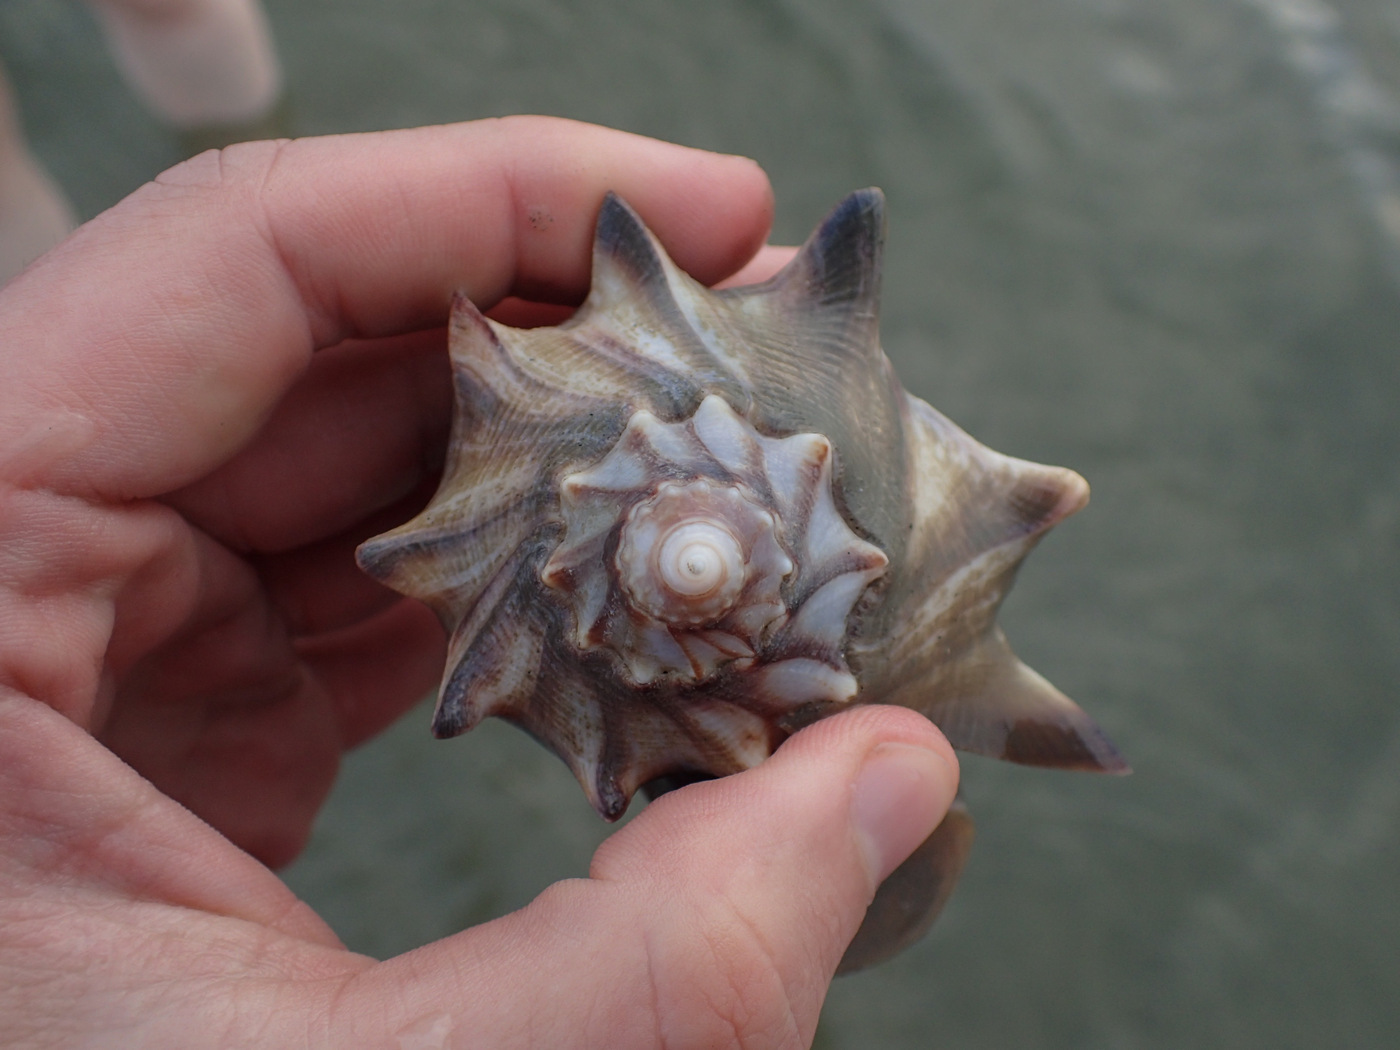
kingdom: Animalia
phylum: Mollusca
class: Gastropoda
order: Neogastropoda
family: Busyconidae
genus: Busycon
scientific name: Busycon carica
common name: Knobbed whelk
